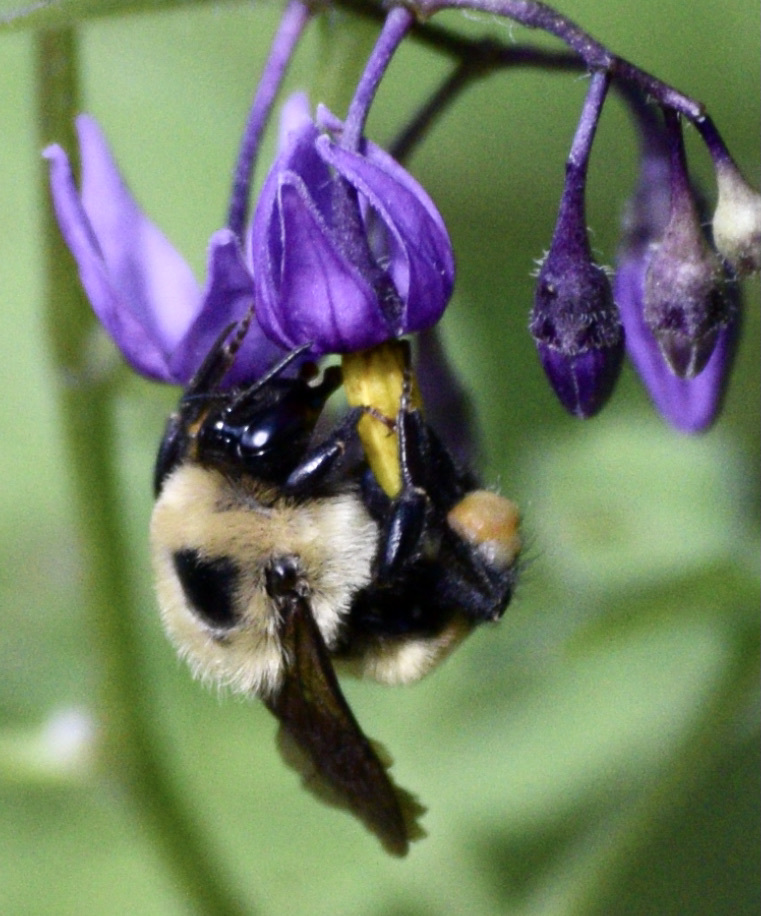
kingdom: Animalia
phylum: Arthropoda
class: Insecta
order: Hymenoptera
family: Apidae
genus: Bombus
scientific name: Bombus griseocollis
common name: Brown-belted bumble bee
